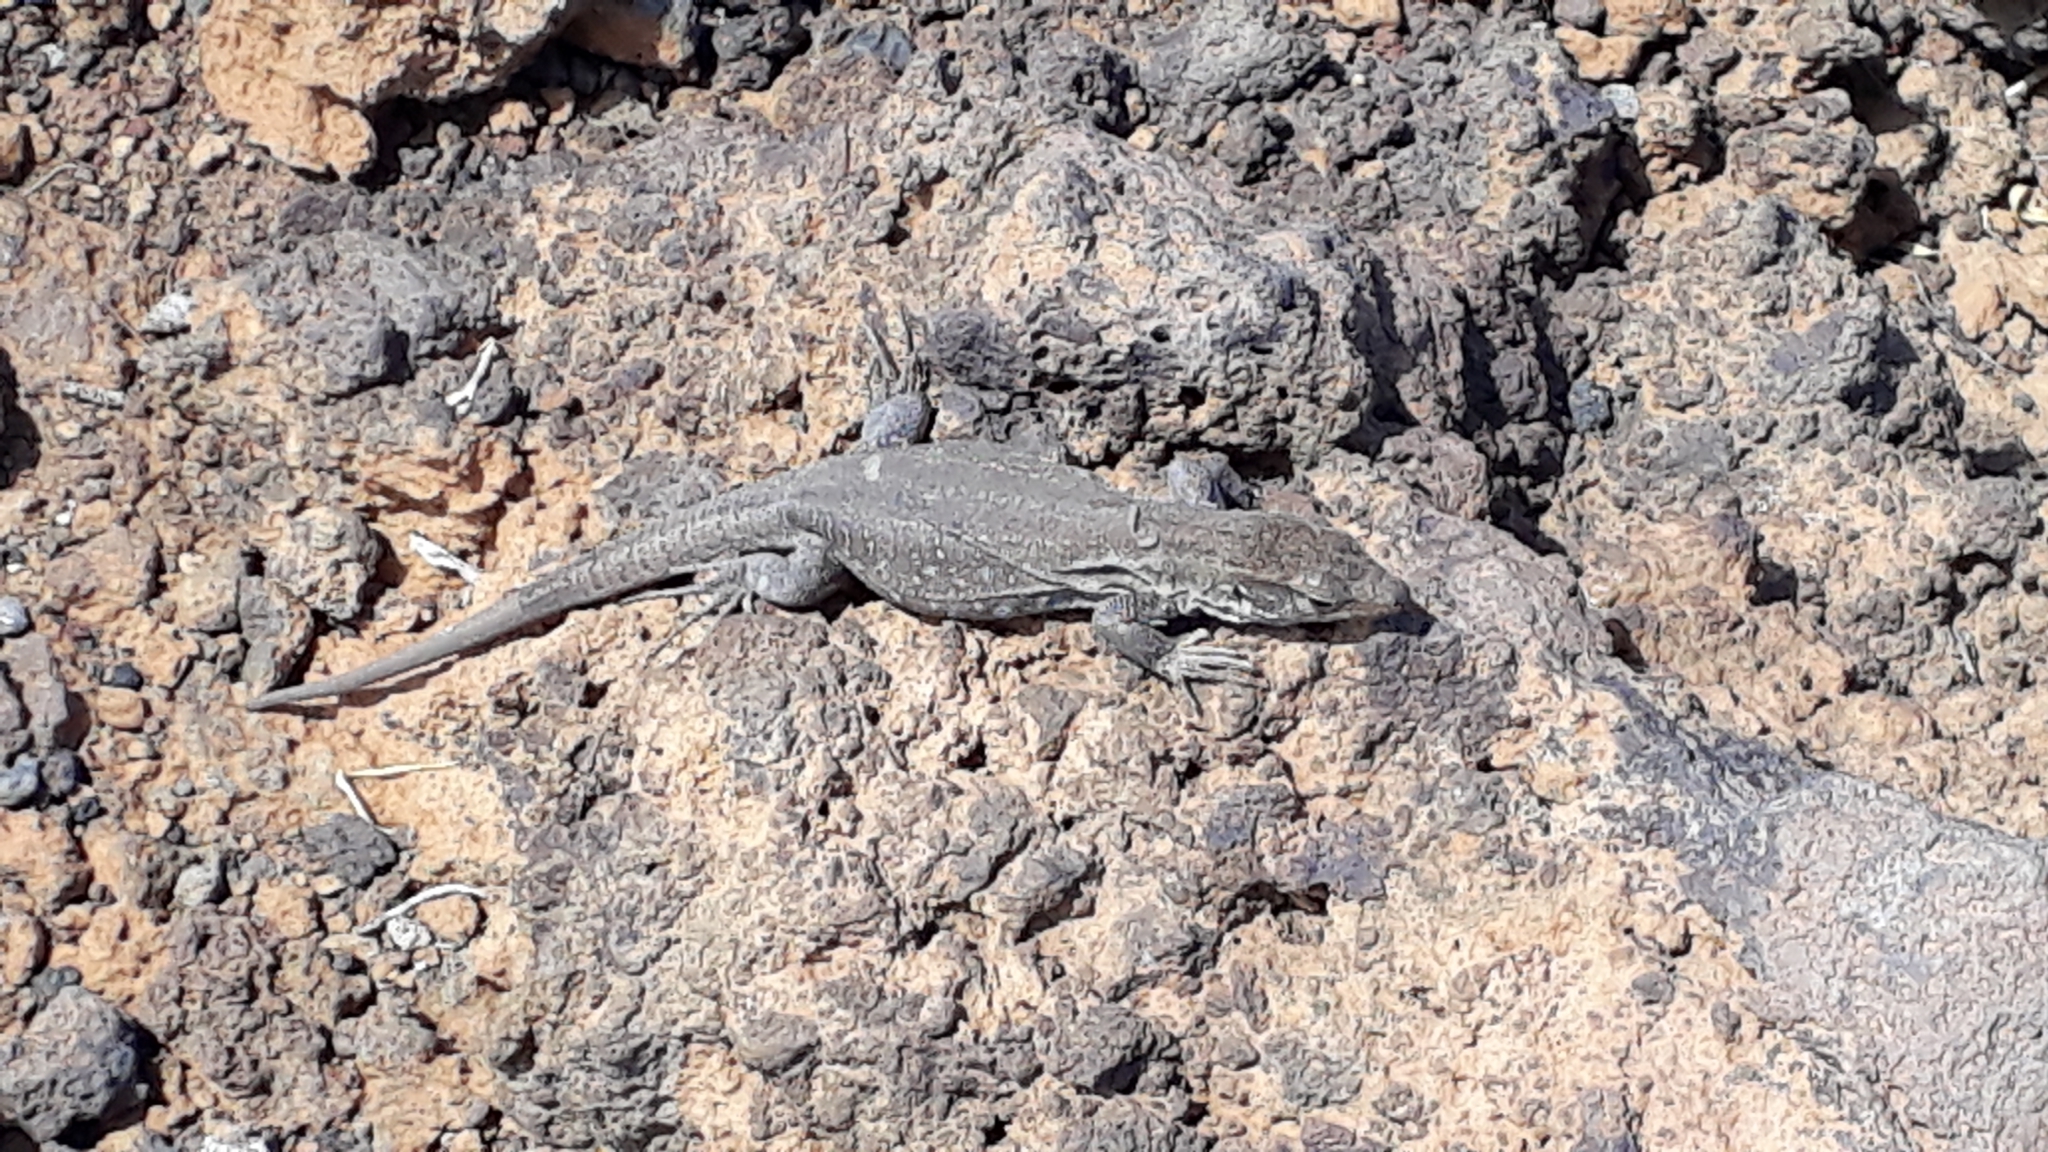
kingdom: Animalia
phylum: Chordata
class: Squamata
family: Lacertidae
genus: Gallotia
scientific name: Gallotia galloti
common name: Gallot's lizard
